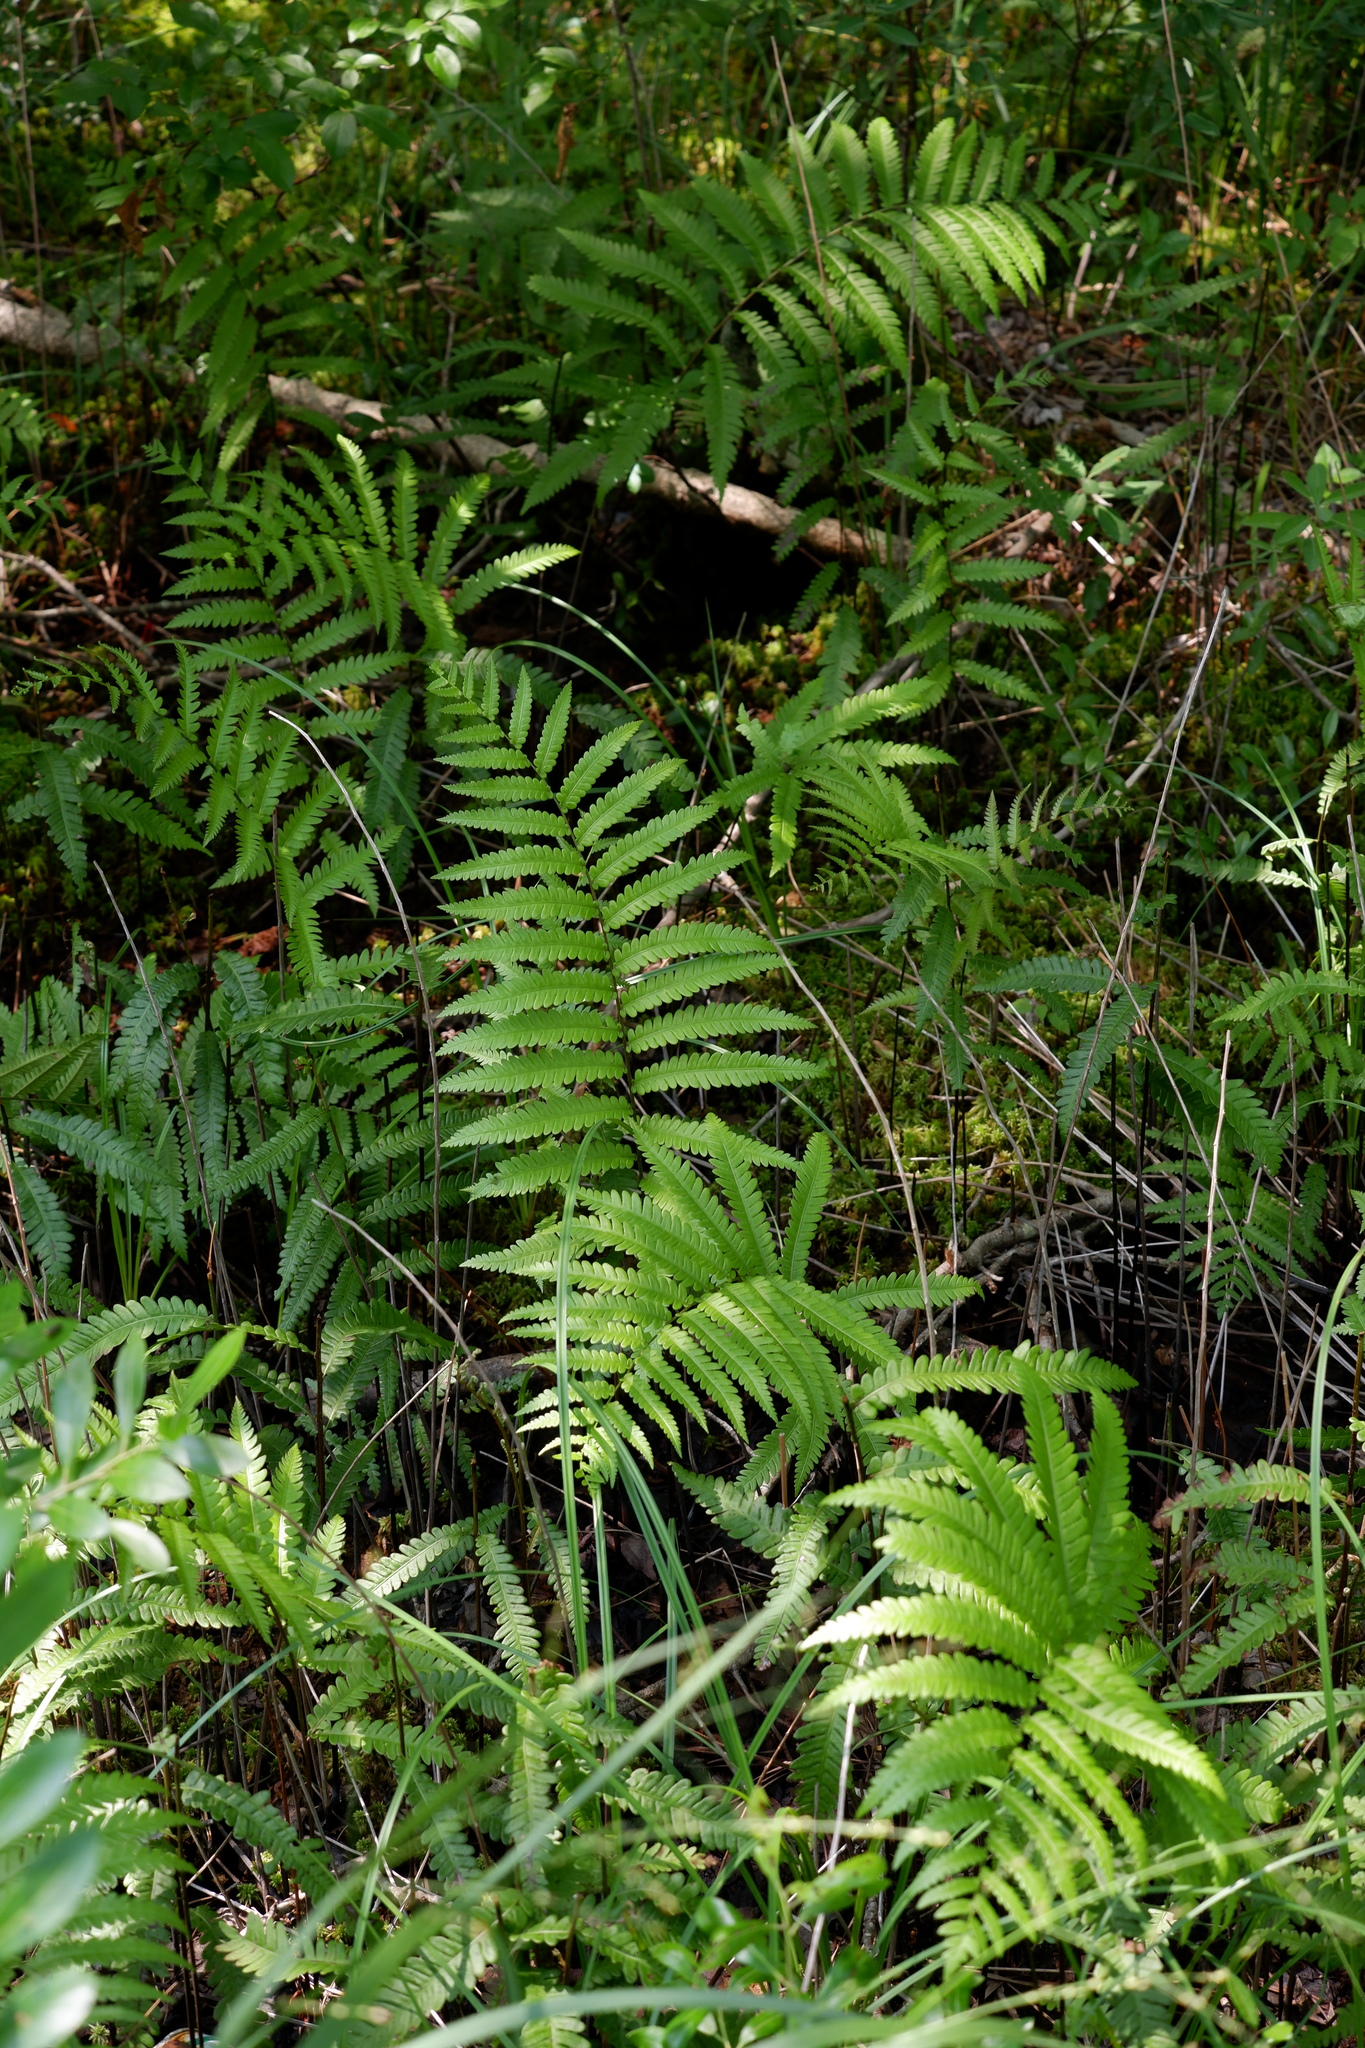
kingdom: Plantae
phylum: Tracheophyta
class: Polypodiopsida
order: Polypodiales
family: Blechnaceae
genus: Anchistea
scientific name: Anchistea virginica
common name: Virginia chain fern
